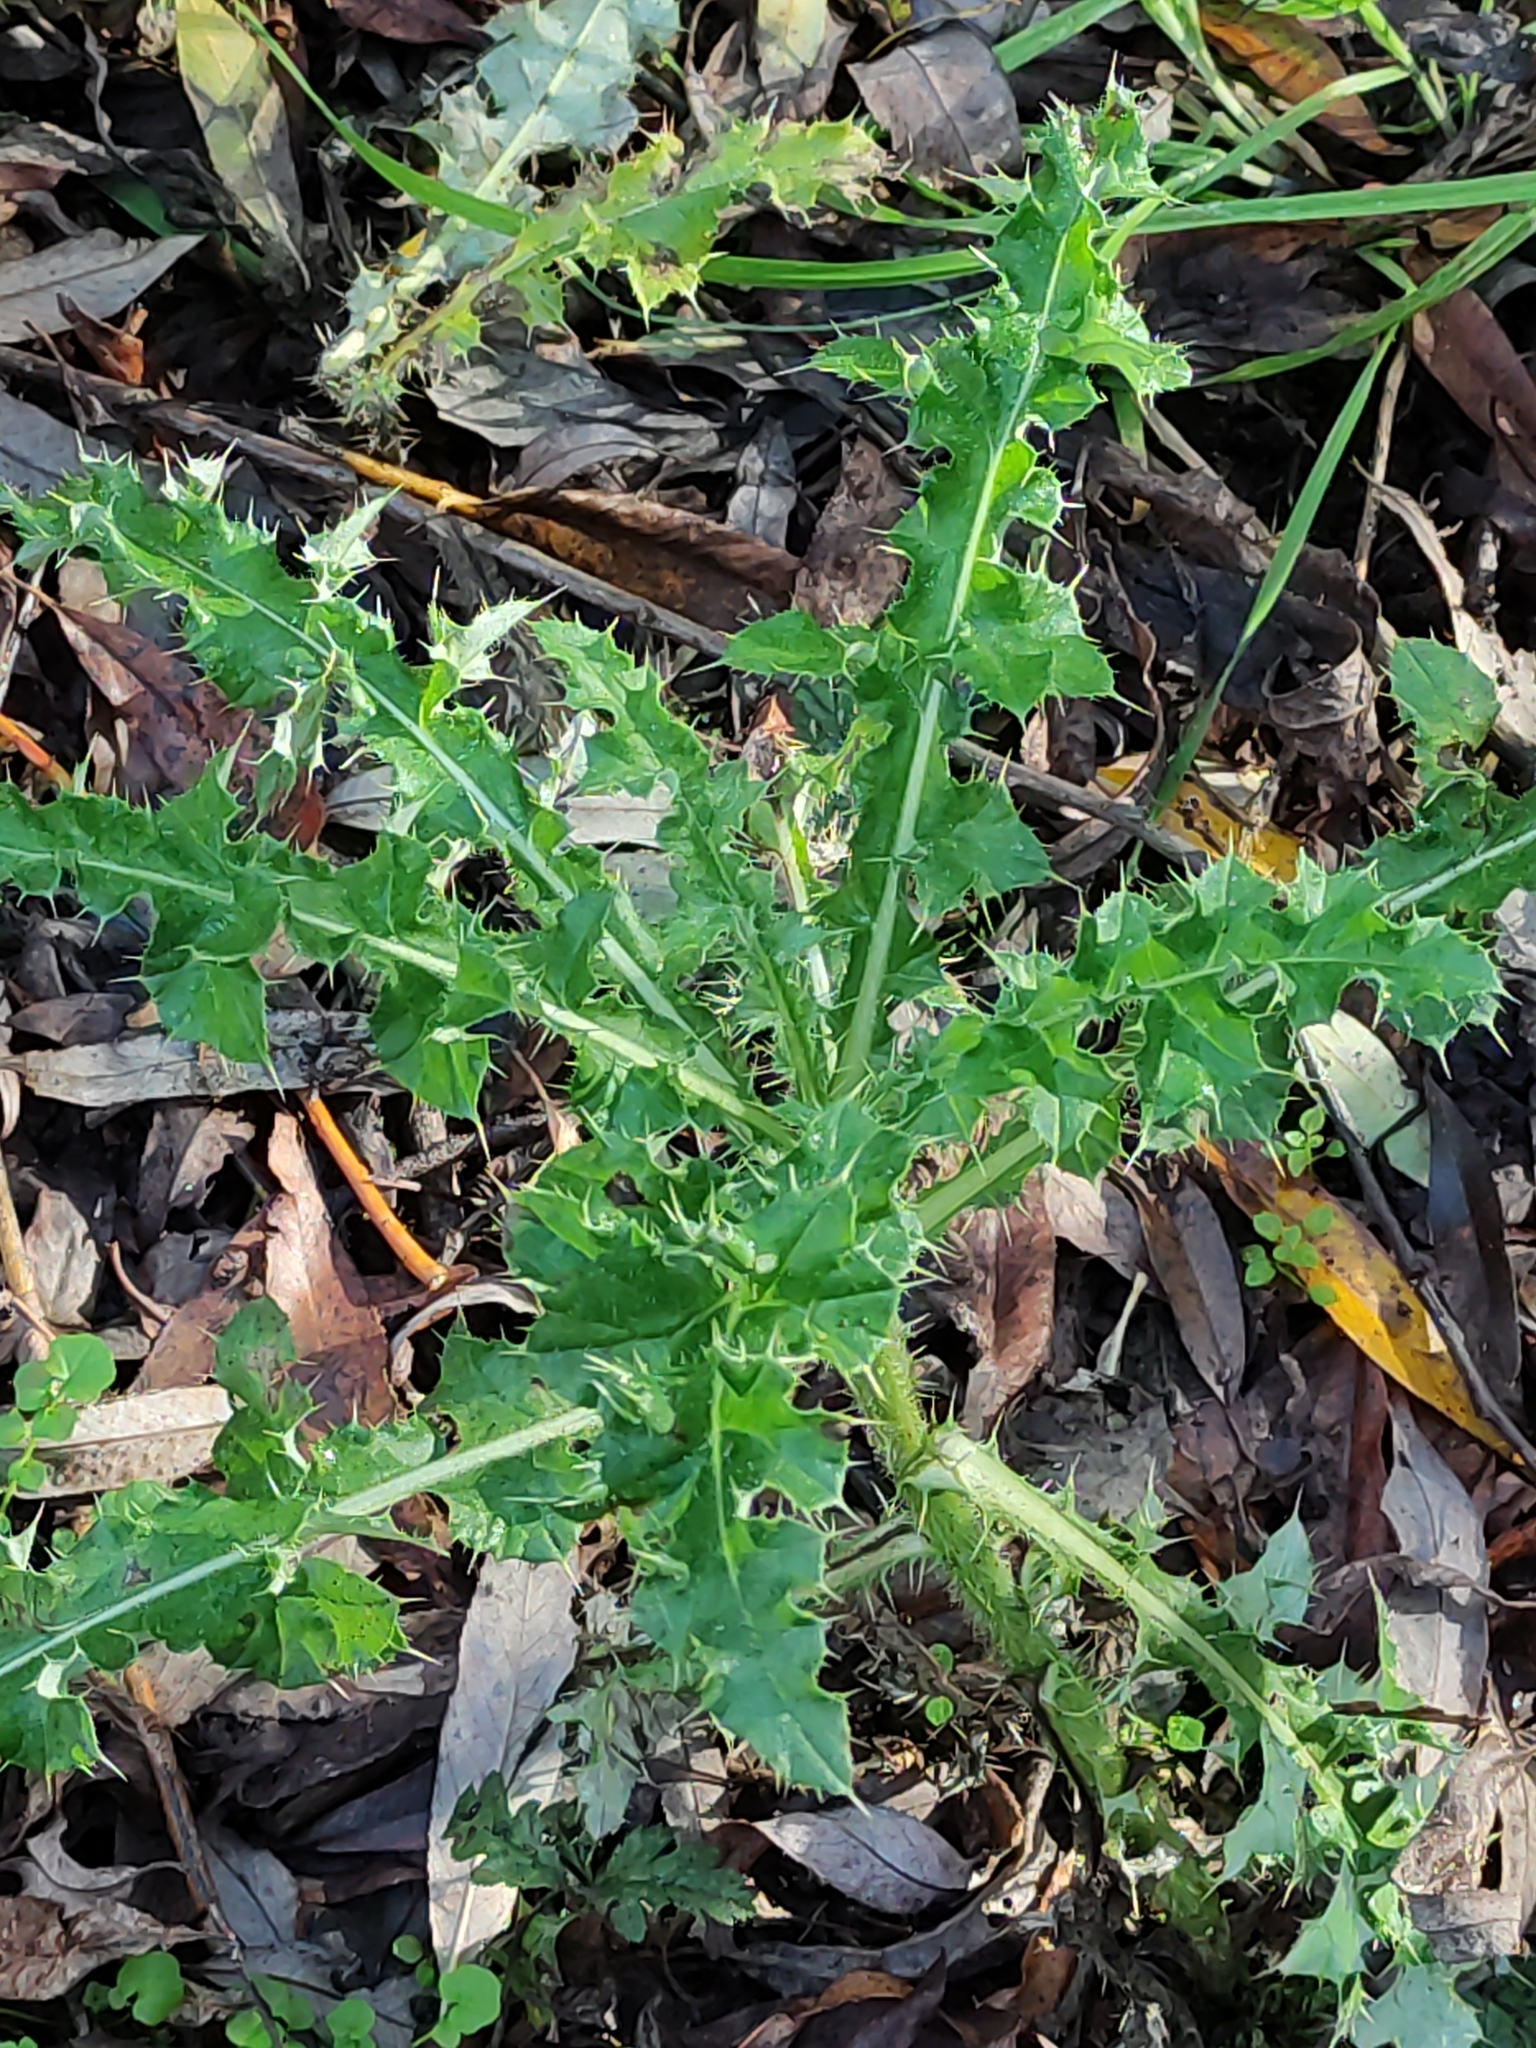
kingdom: Plantae
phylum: Tracheophyta
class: Magnoliopsida
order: Asterales
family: Asteraceae
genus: Cirsium
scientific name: Cirsium arvense
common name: Creeping thistle
